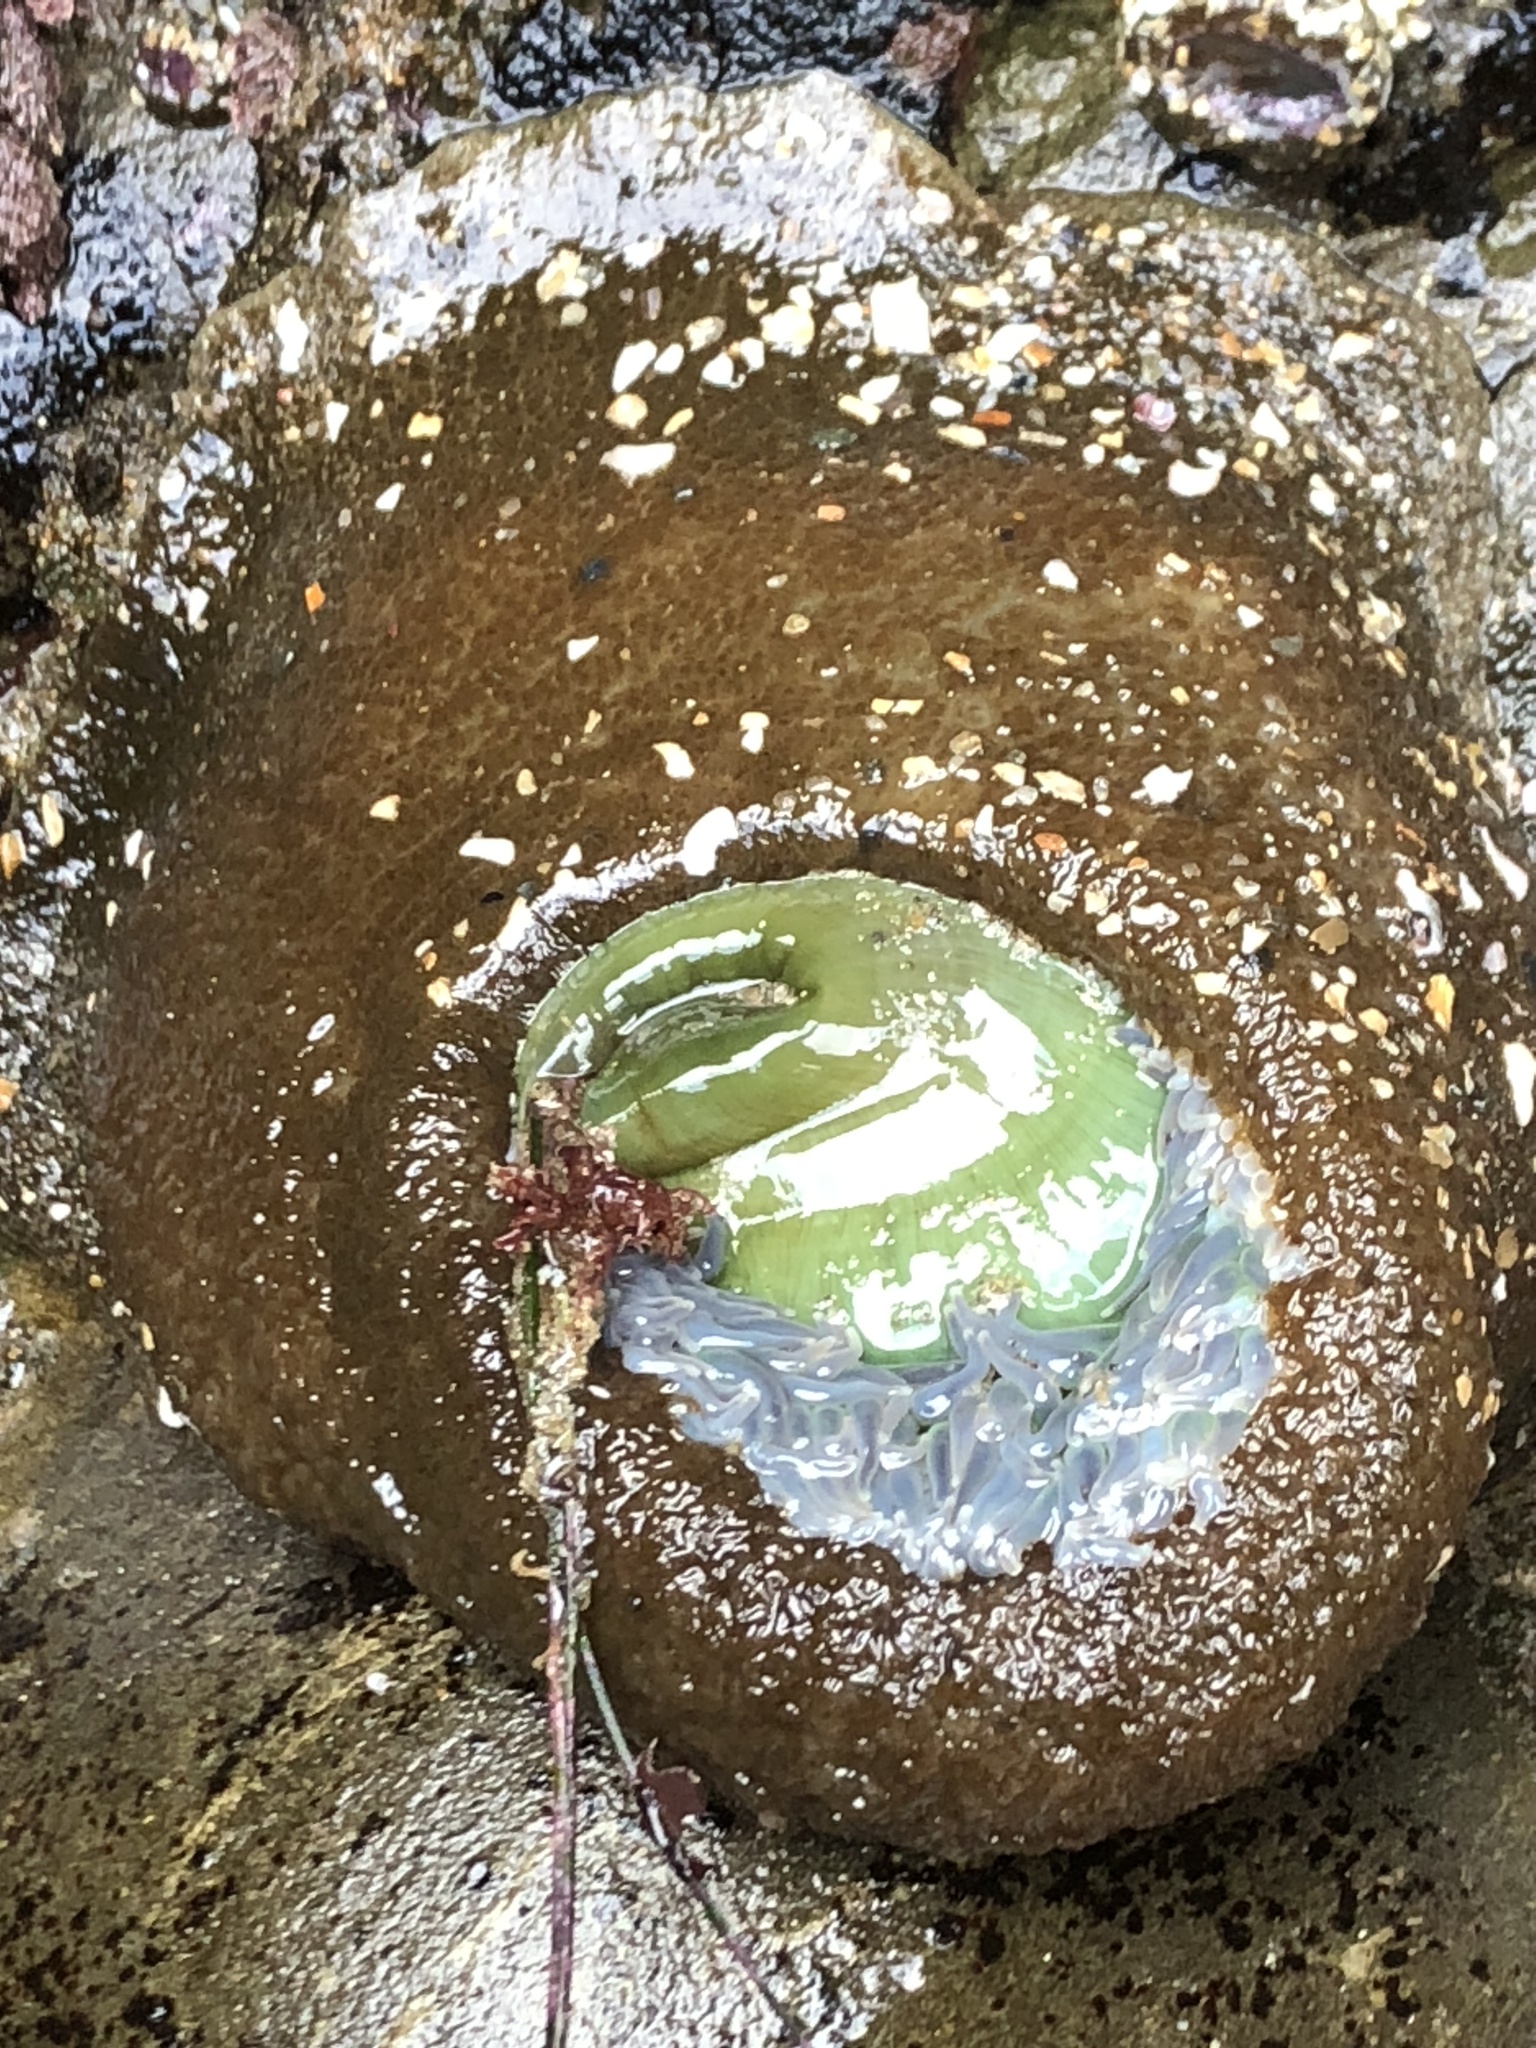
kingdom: Animalia
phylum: Cnidaria
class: Anthozoa
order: Actiniaria
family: Actiniidae
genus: Anthopleura
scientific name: Anthopleura xanthogrammica
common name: Giant green anemone
